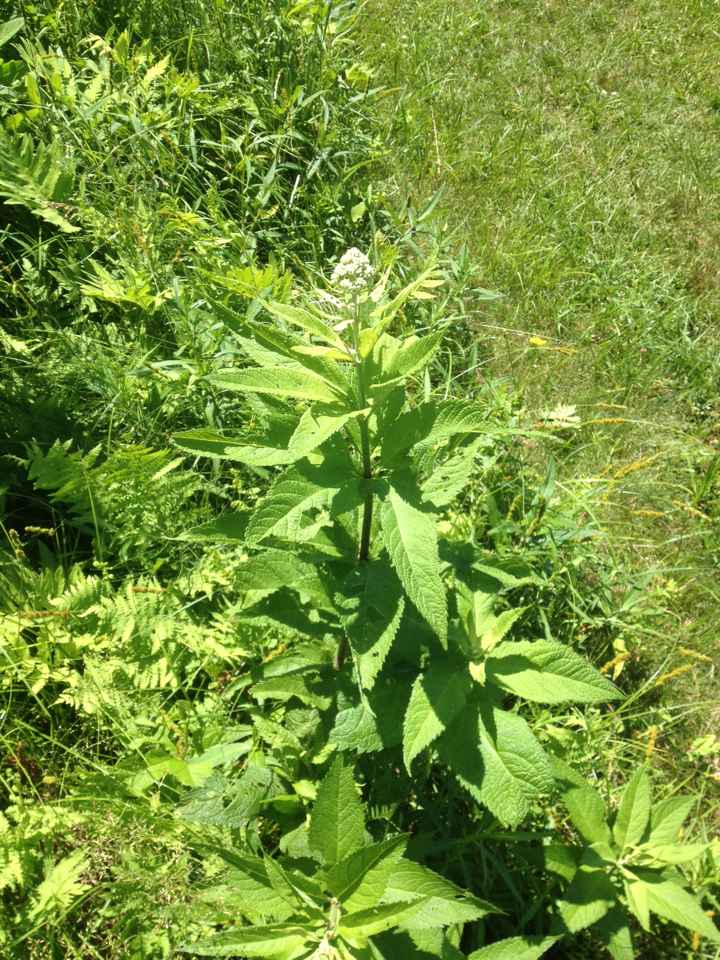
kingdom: Plantae
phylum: Tracheophyta
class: Magnoliopsida
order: Asterales
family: Asteraceae
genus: Eutrochium
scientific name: Eutrochium
